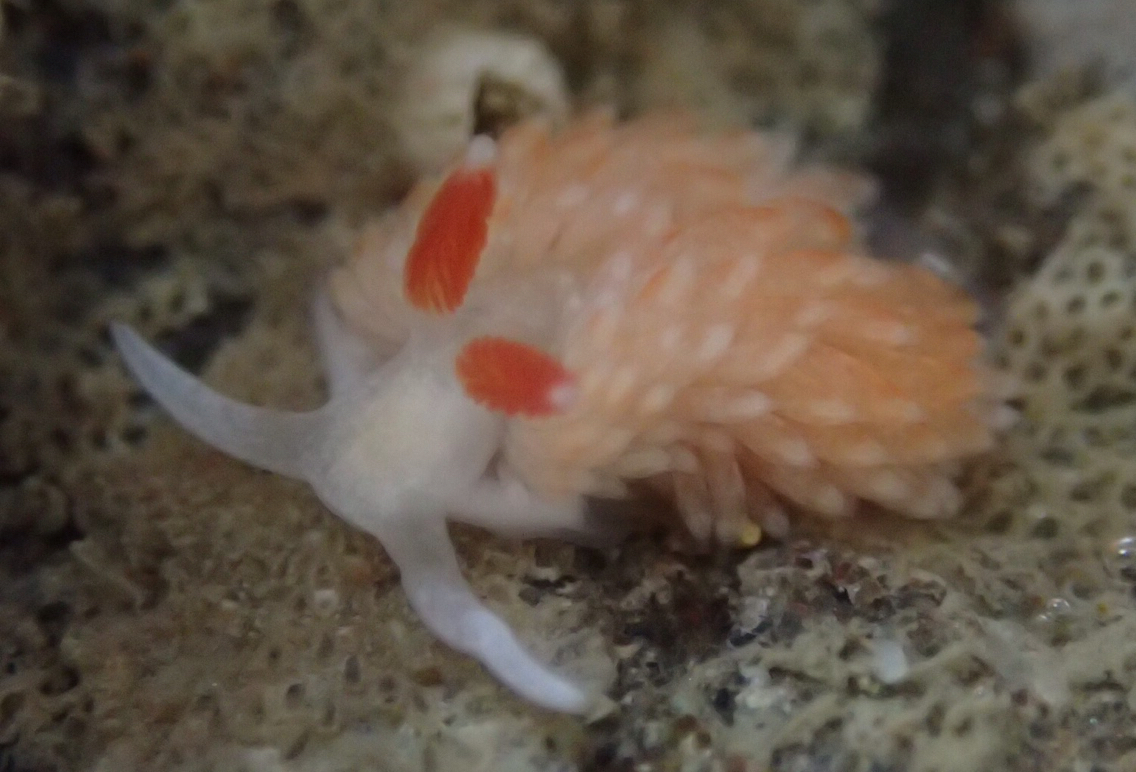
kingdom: Animalia
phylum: Mollusca
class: Gastropoda
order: Nudibranchia
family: Aeolidiidae
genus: Anteaeolidiella
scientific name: Anteaeolidiella oliviae
